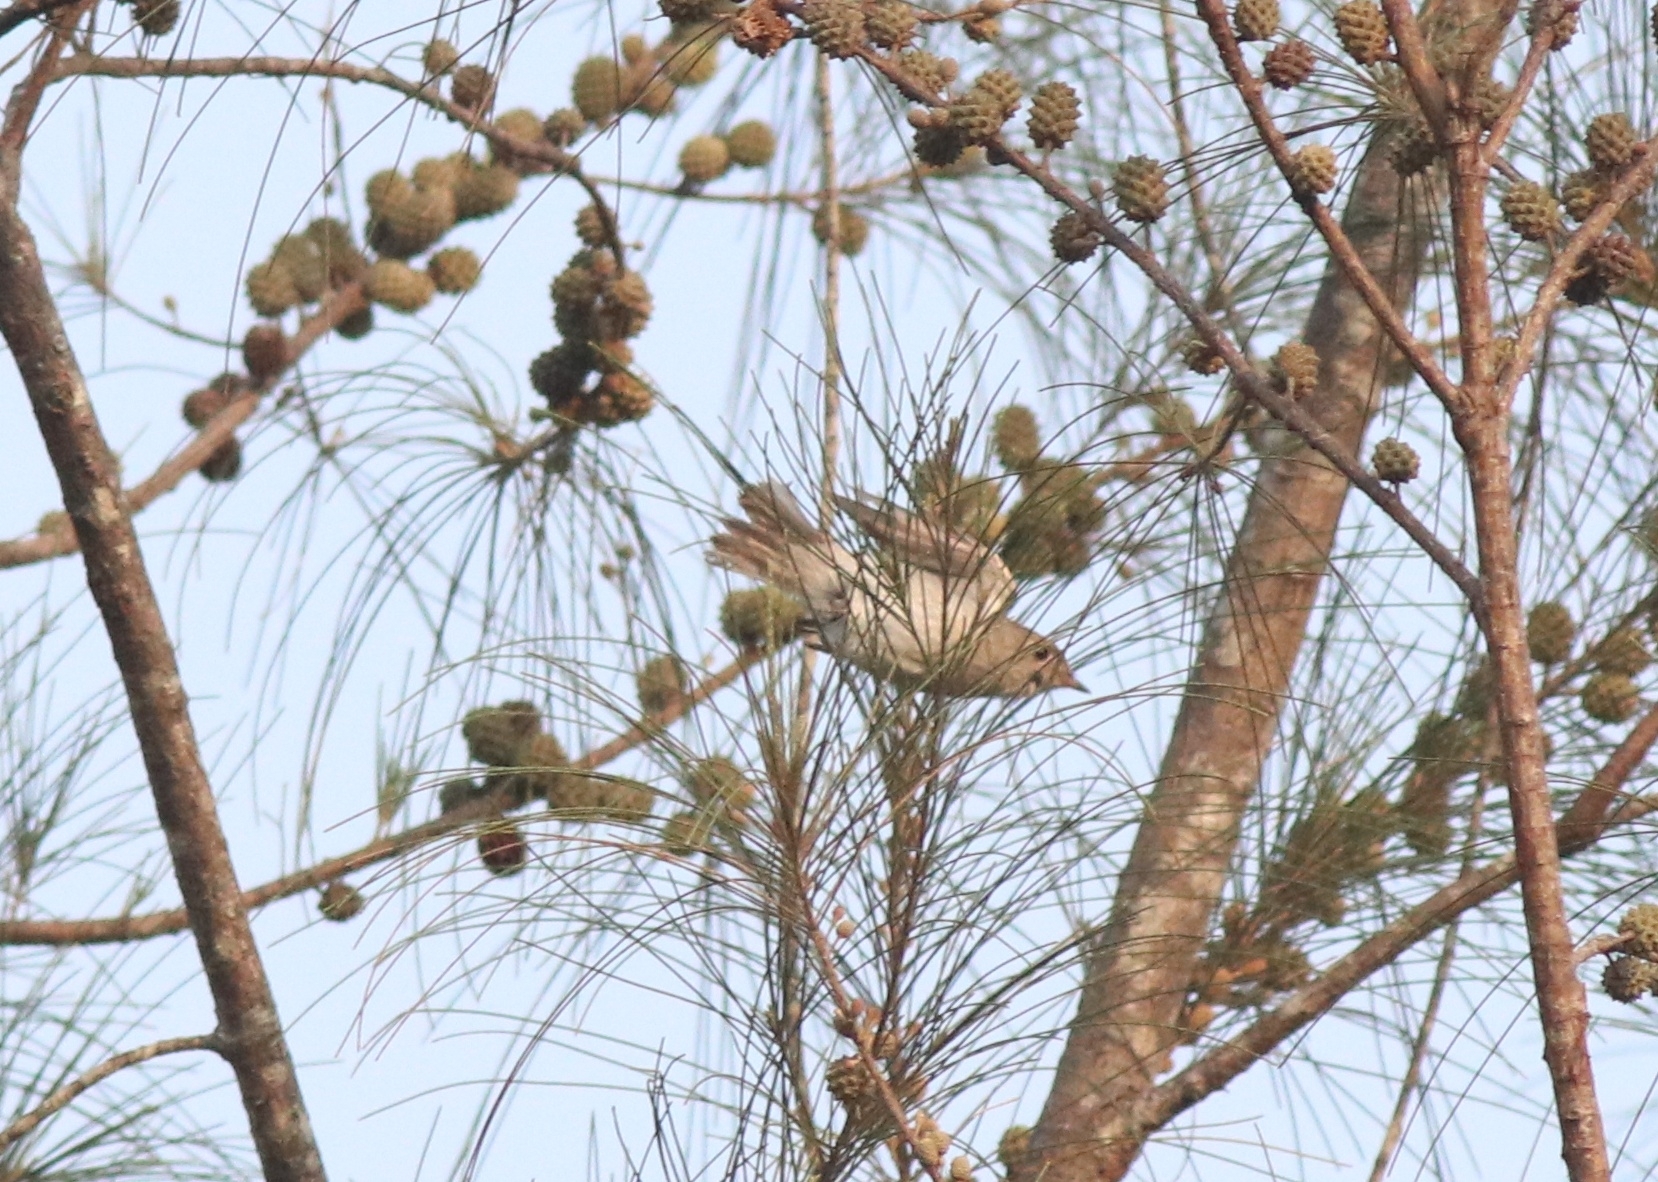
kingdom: Animalia
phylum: Chordata
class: Aves
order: Passeriformes
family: Muscicapidae
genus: Muscicapa
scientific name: Muscicapa latirostris
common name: Asian brown flycatcher
